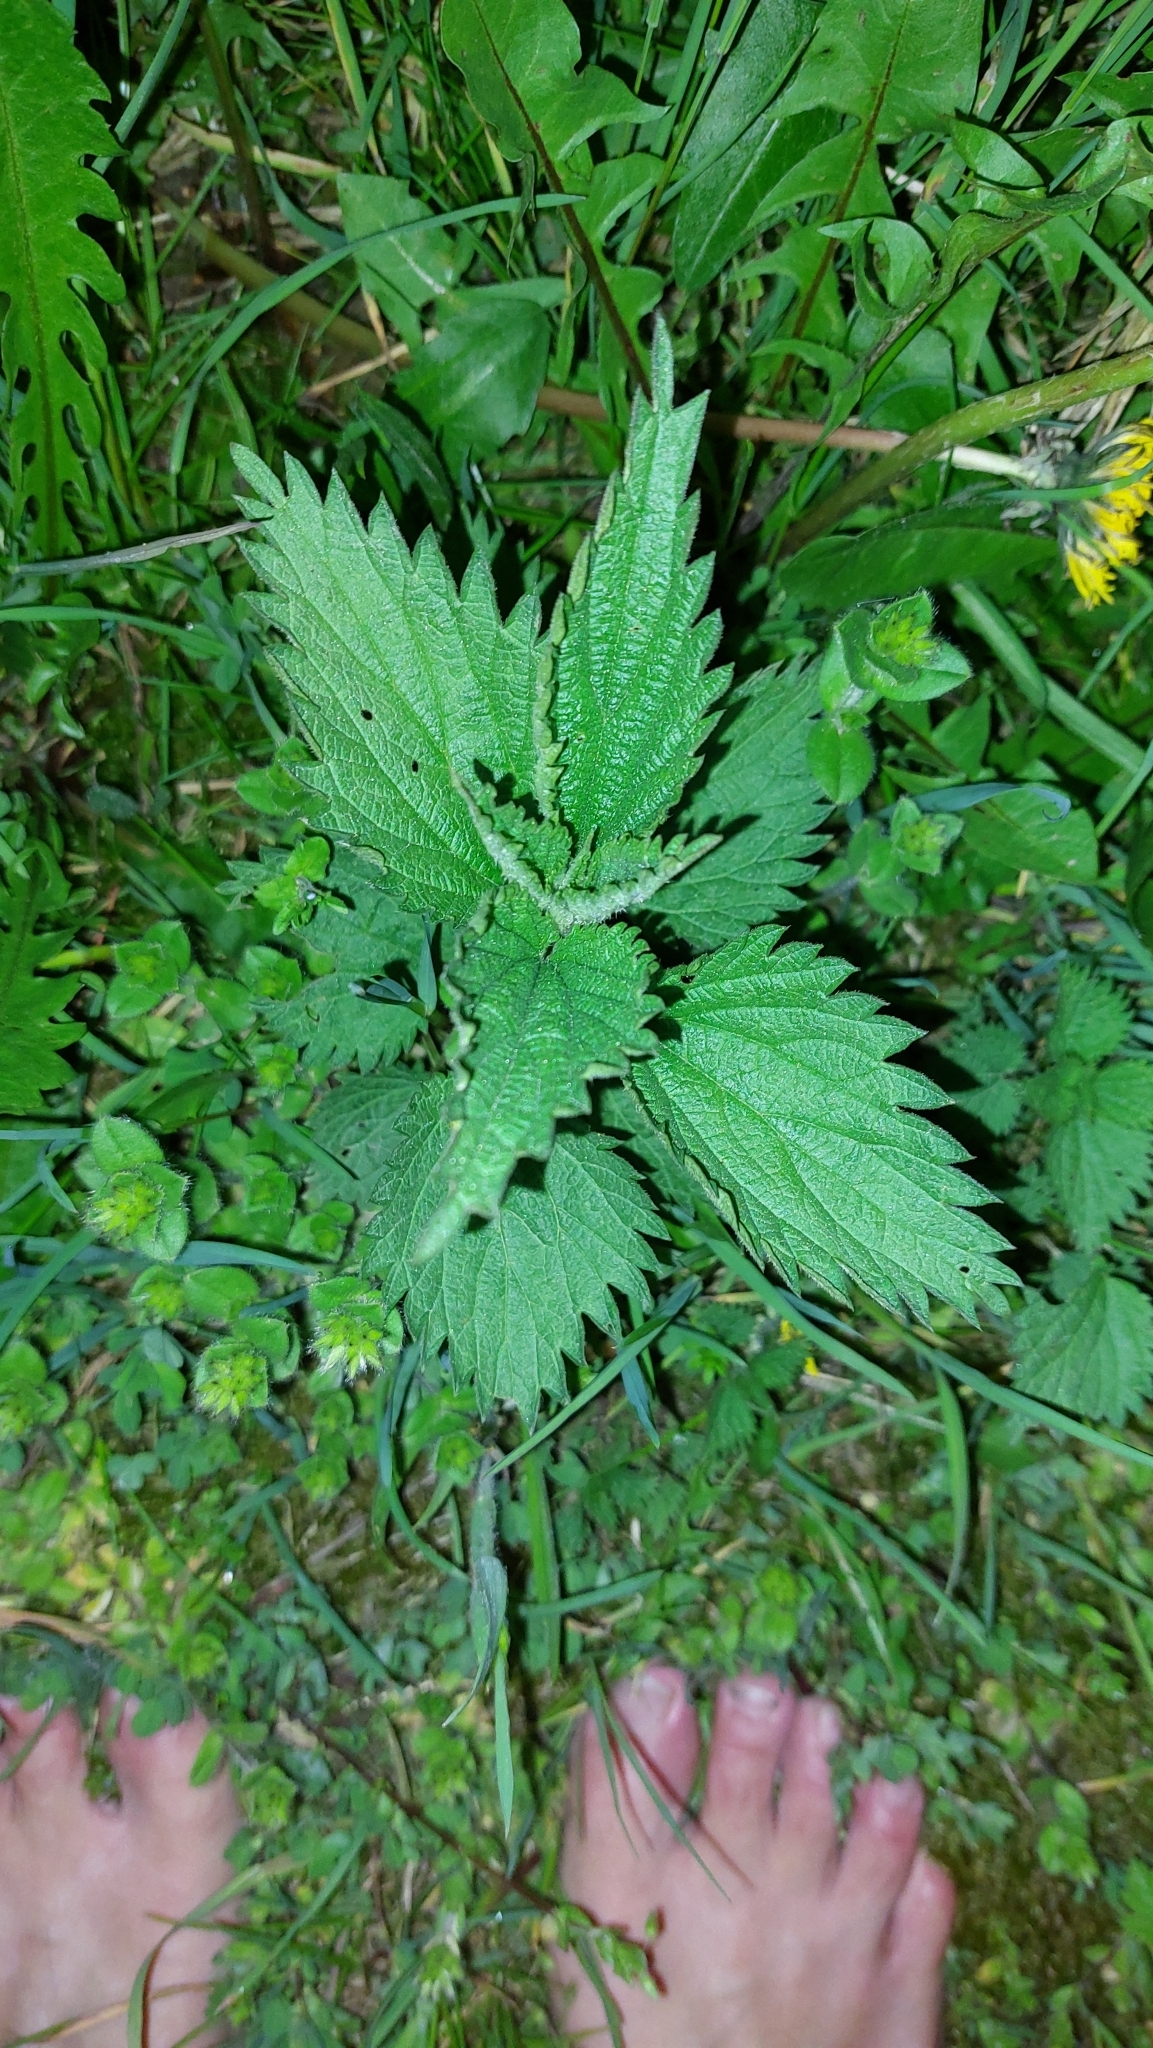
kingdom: Plantae
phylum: Tracheophyta
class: Magnoliopsida
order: Rosales
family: Urticaceae
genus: Urtica
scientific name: Urtica dioica
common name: Common nettle
